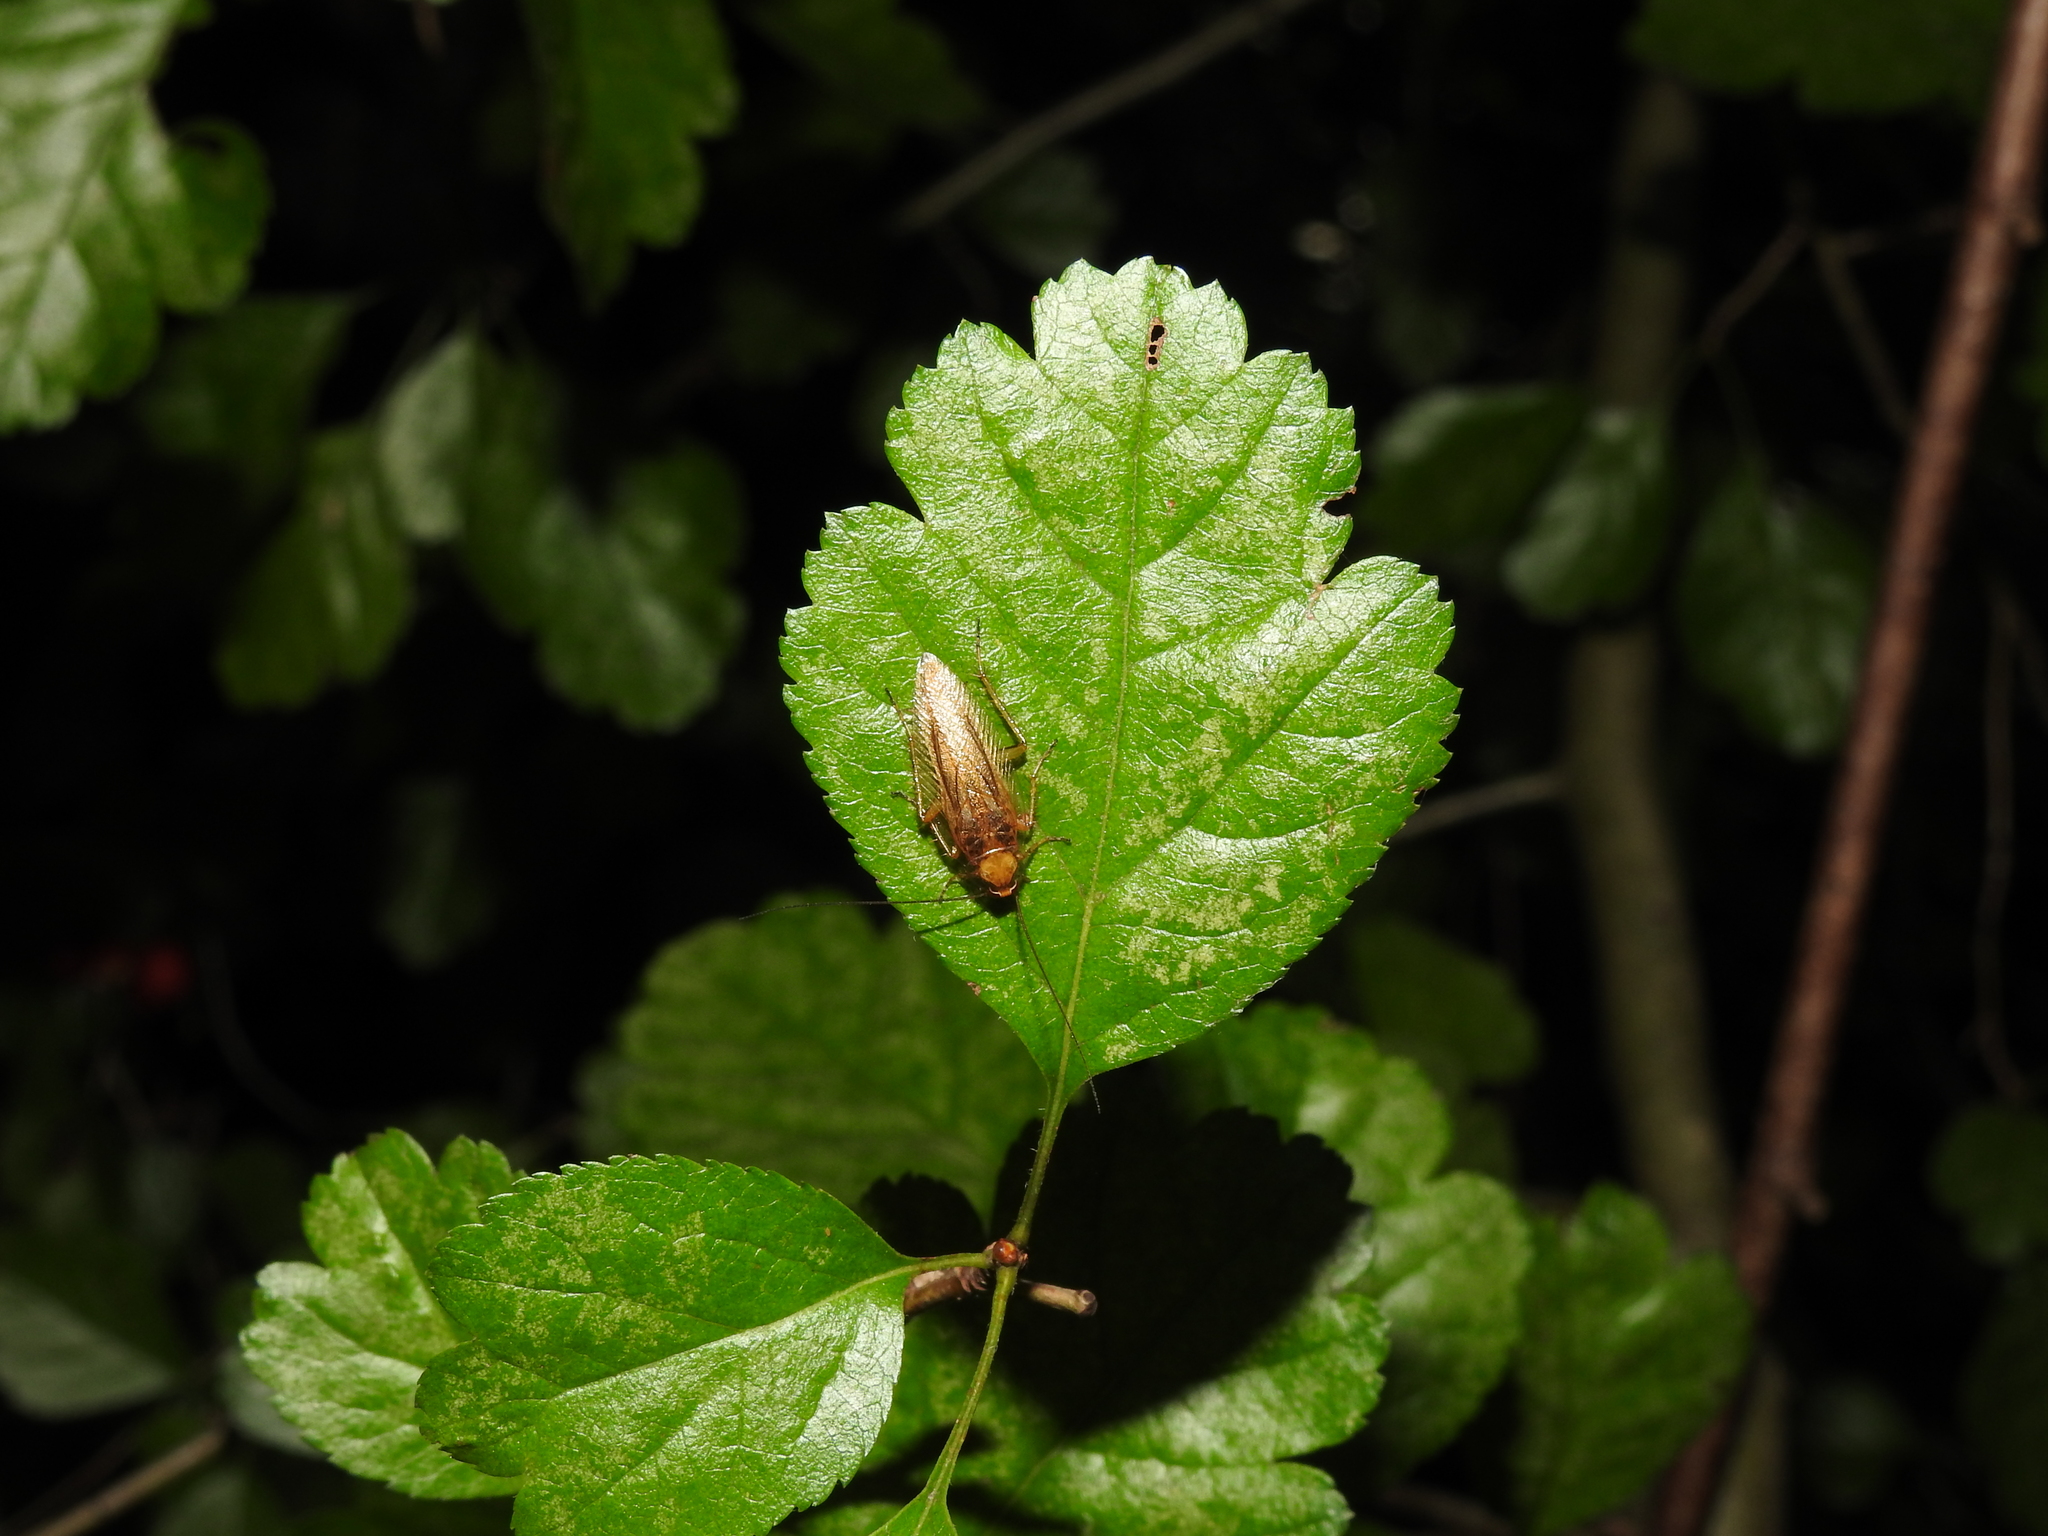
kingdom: Animalia
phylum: Arthropoda
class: Insecta
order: Blattodea
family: Ectobiidae
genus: Ectobius
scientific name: Ectobius vittiventris
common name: Garden cockroach
